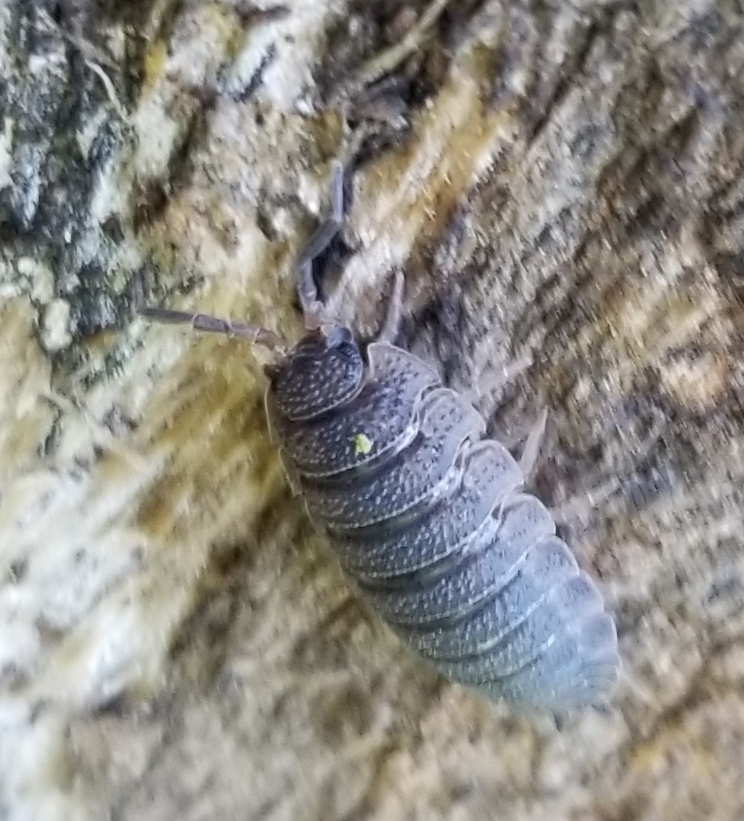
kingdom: Animalia
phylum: Arthropoda
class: Malacostraca
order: Isopoda
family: Porcellionidae
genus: Porcellio
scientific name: Porcellio scaber
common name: Common rough woodlouse
